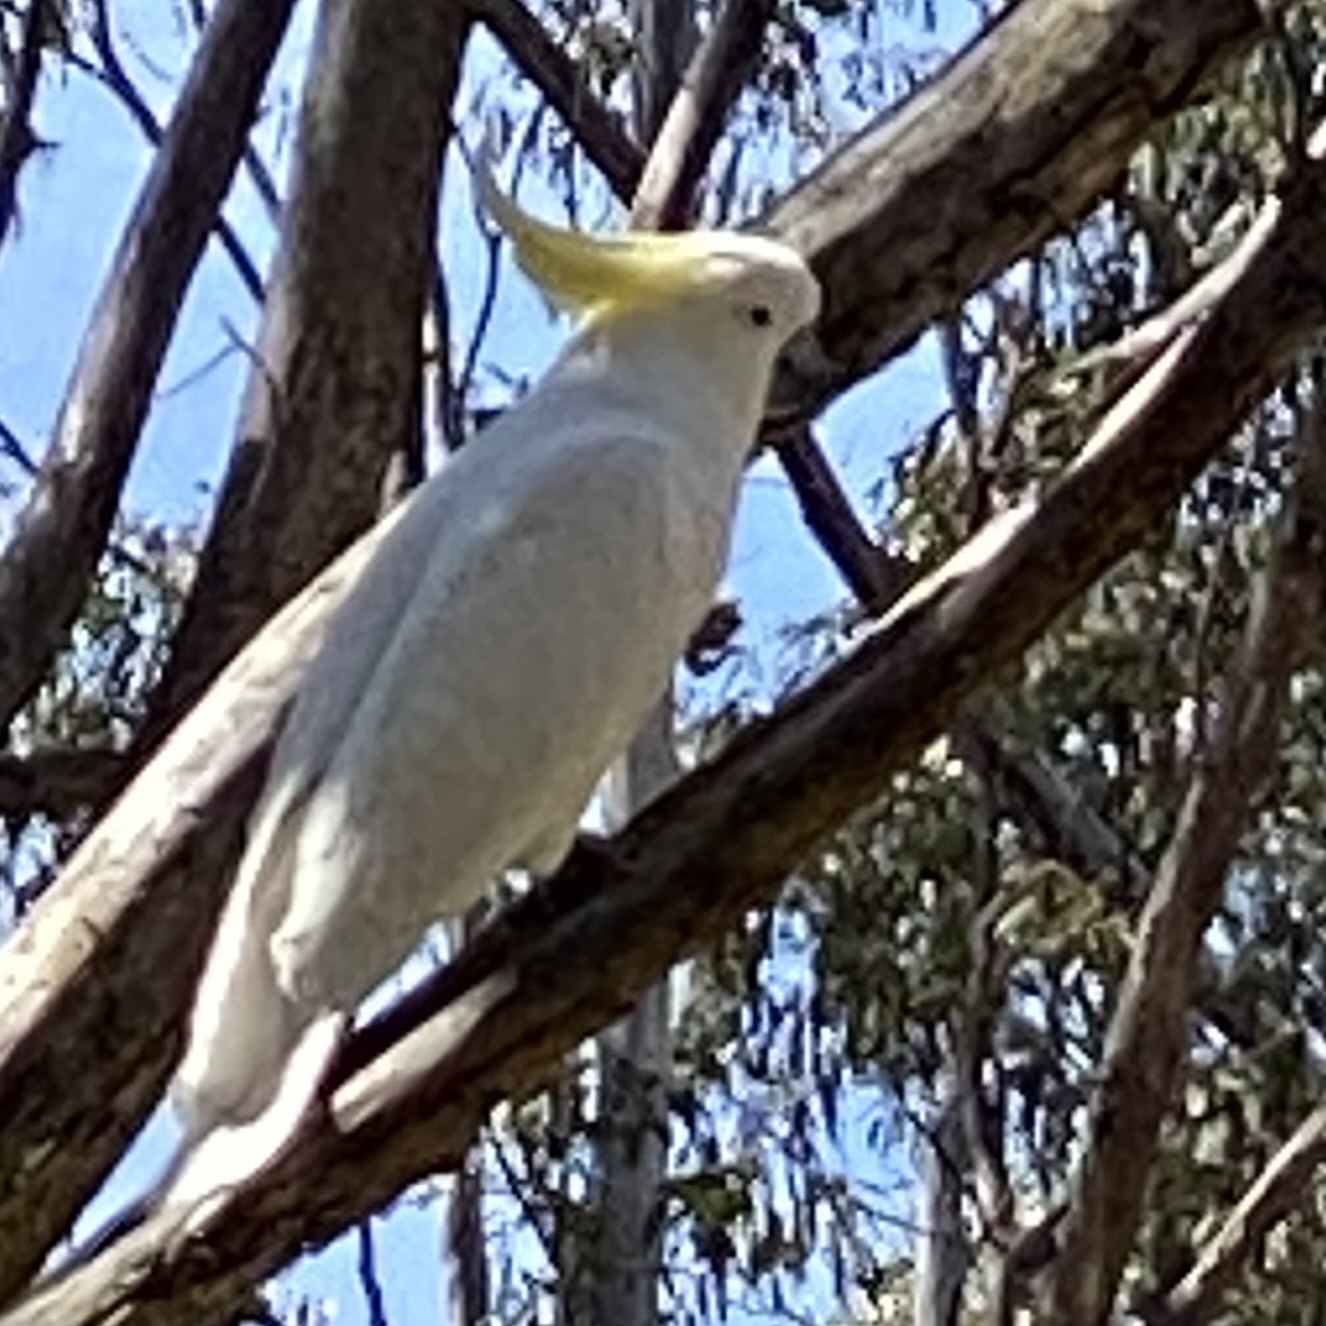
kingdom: Animalia
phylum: Chordata
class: Aves
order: Psittaciformes
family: Psittacidae
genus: Cacatua
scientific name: Cacatua galerita
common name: Sulphur-crested cockatoo
